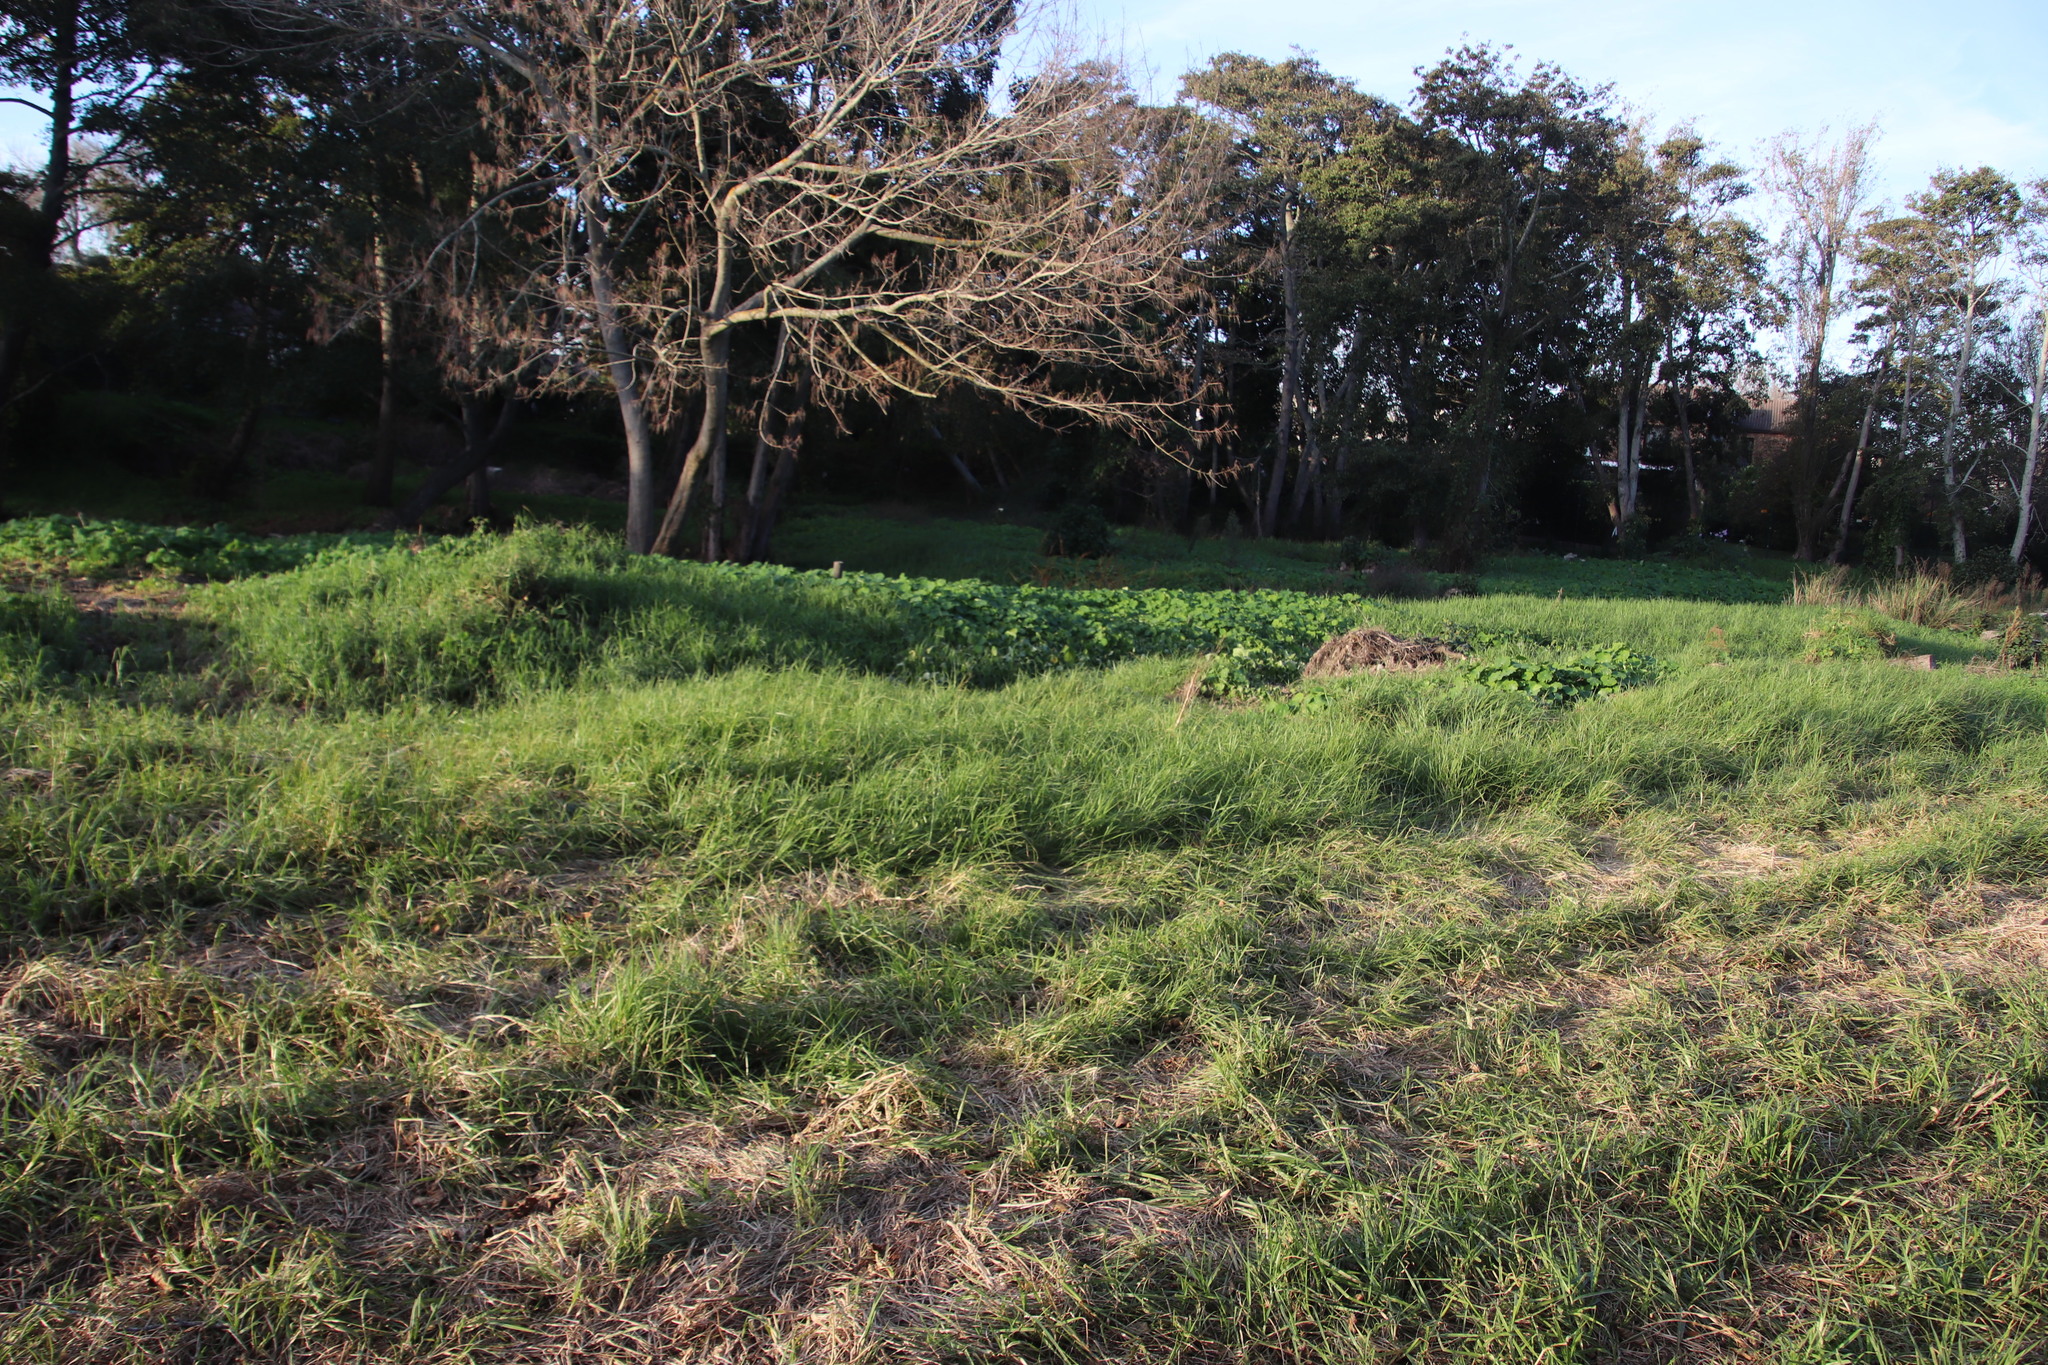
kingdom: Plantae
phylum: Tracheophyta
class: Liliopsida
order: Poales
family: Poaceae
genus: Cenchrus
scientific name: Cenchrus clandestinus
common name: Kikuyugrass
